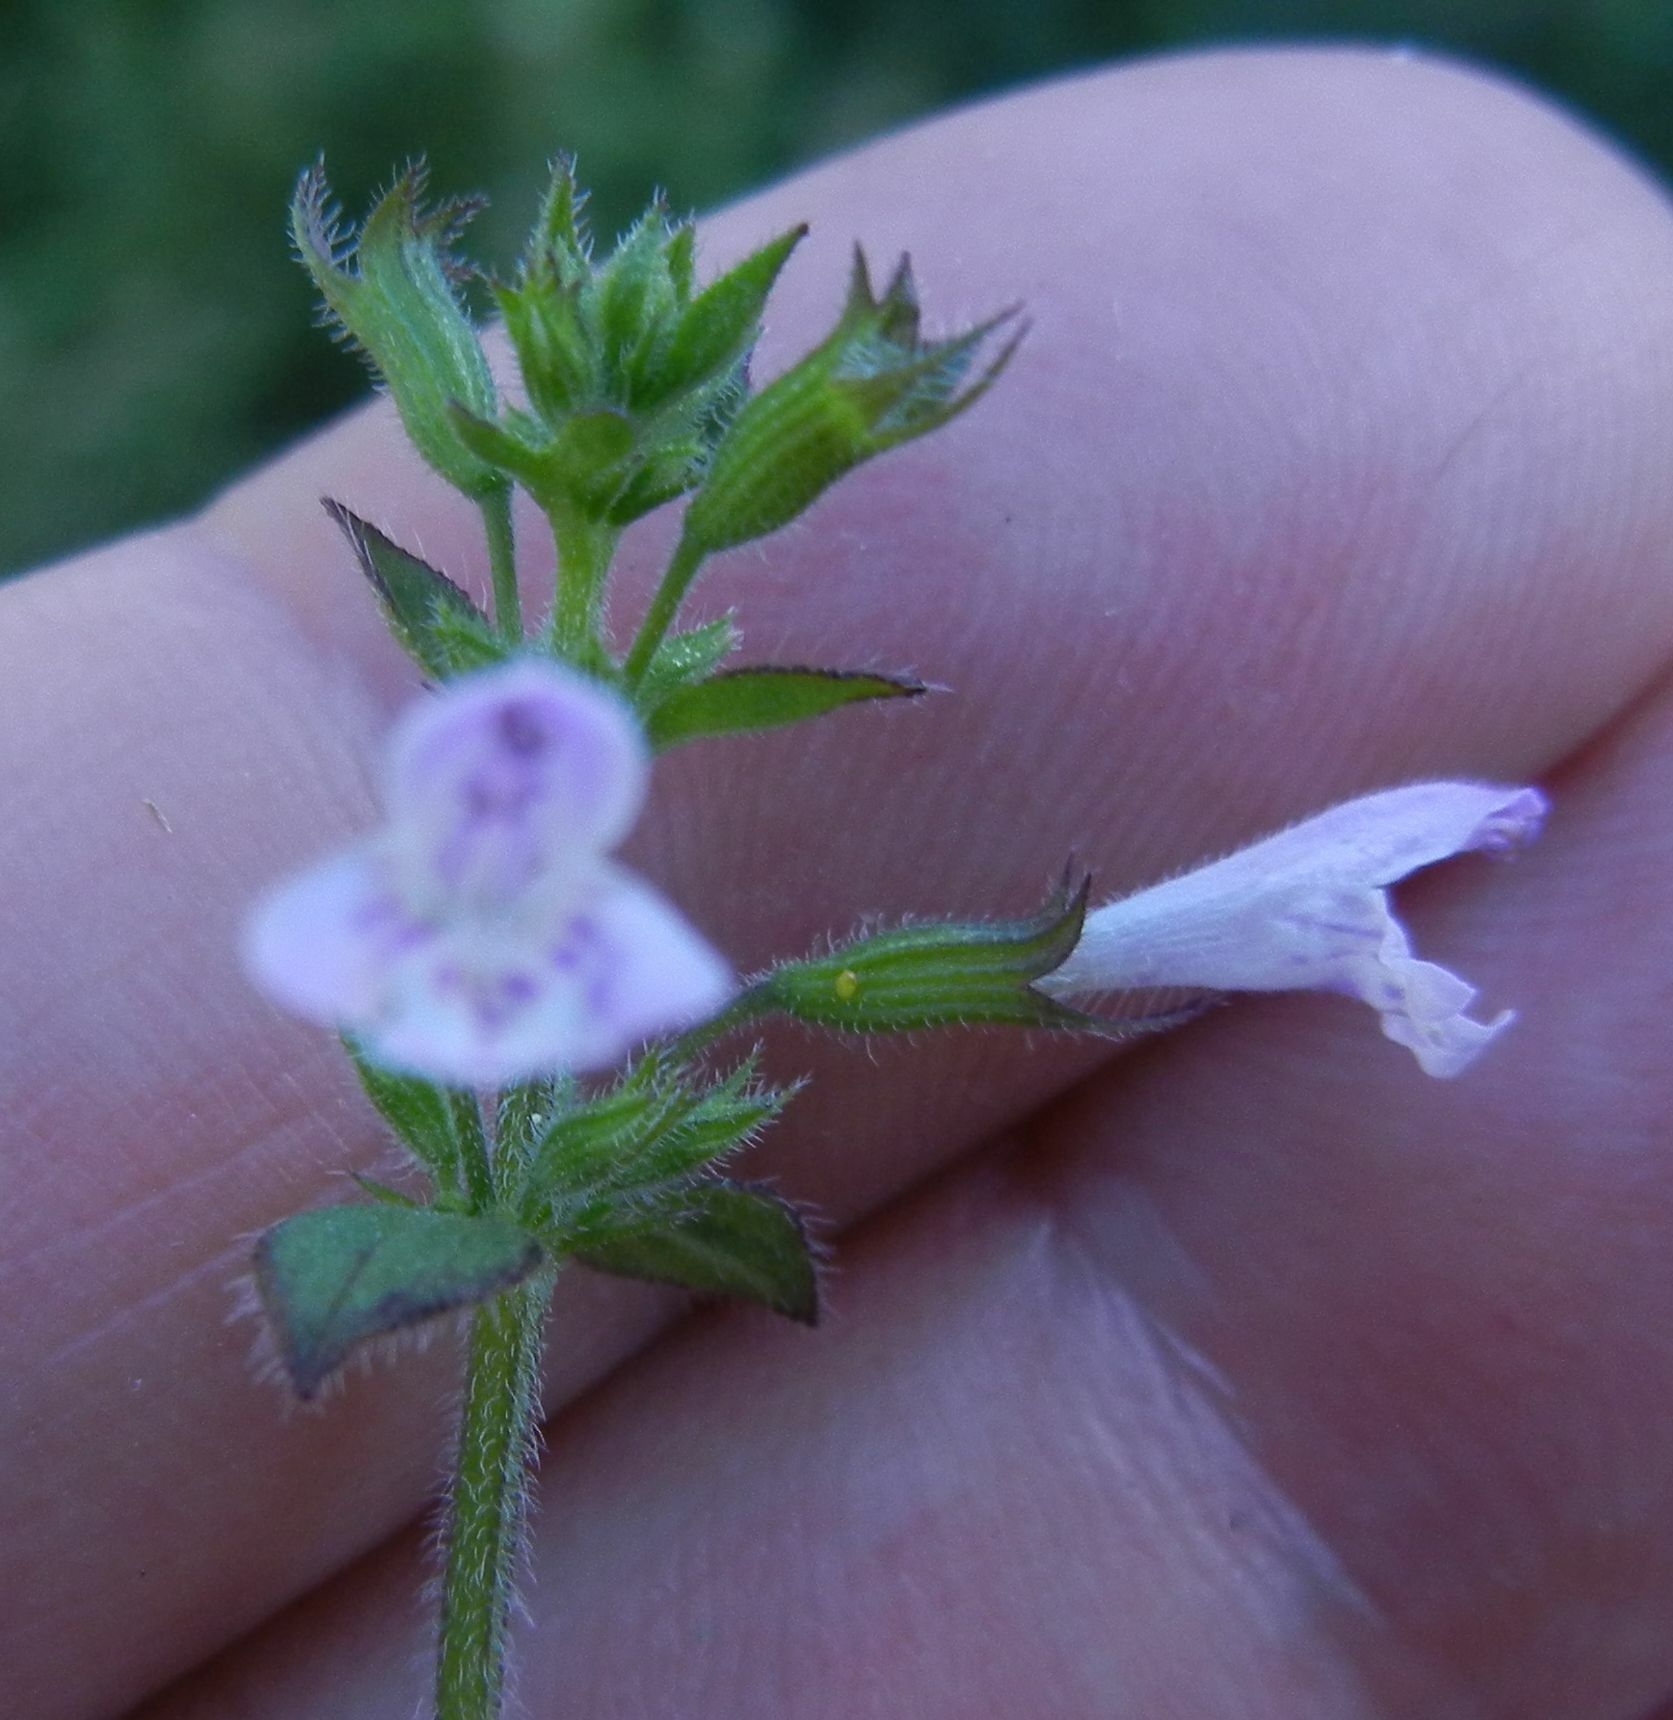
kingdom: Plantae
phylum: Tracheophyta
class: Magnoliopsida
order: Lamiales
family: Lamiaceae
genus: Clinopodium
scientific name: Clinopodium nepeta
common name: Lesser calamint
